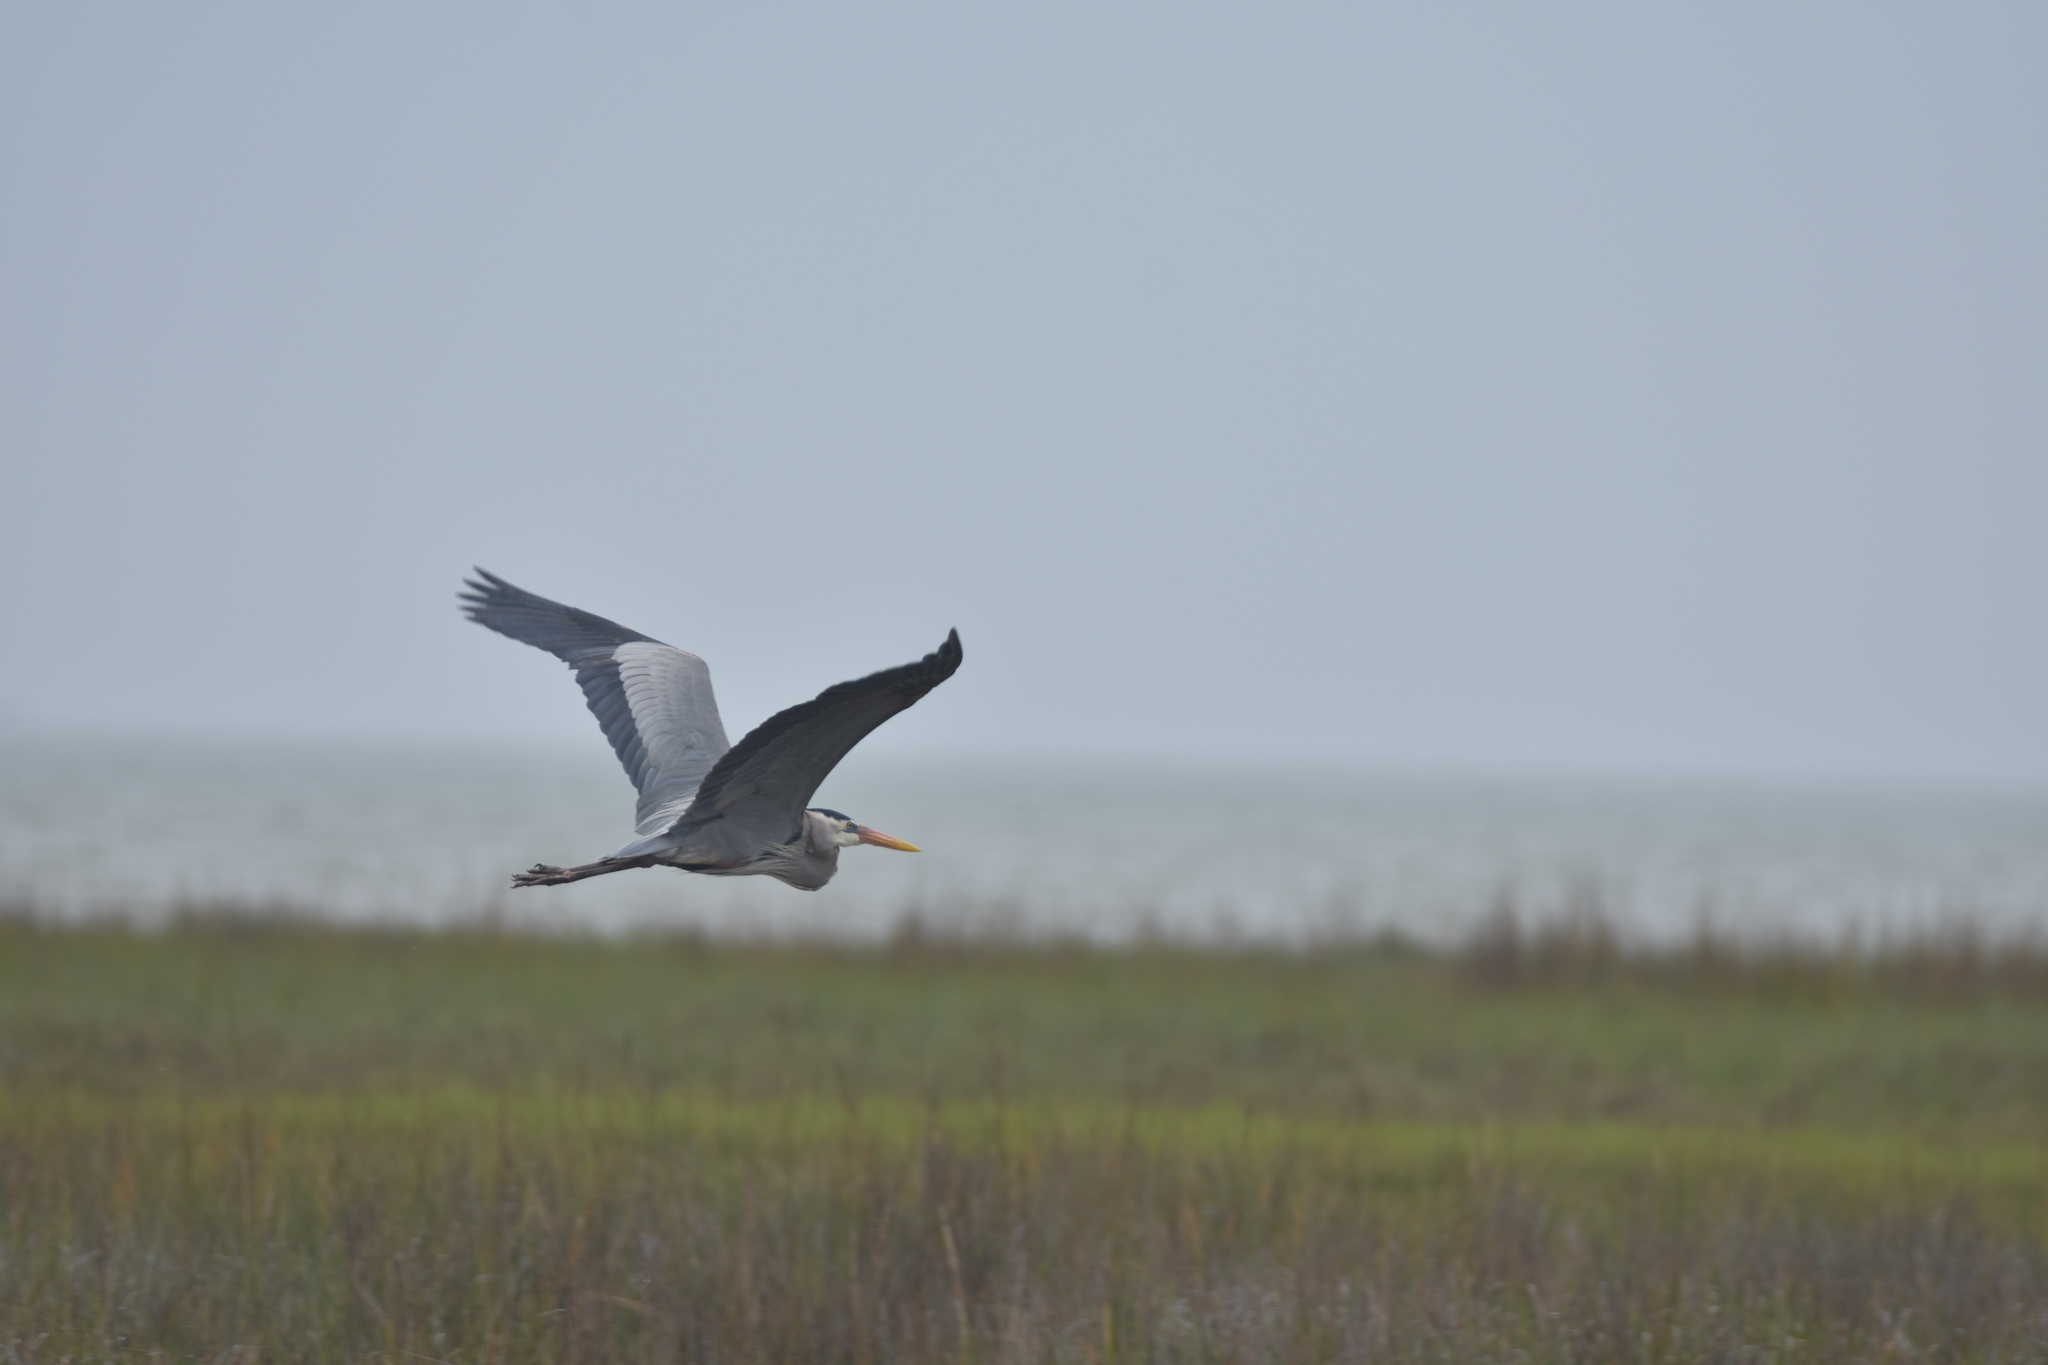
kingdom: Animalia
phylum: Chordata
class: Aves
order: Pelecaniformes
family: Ardeidae
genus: Ardea
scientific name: Ardea herodias
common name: Great blue heron
